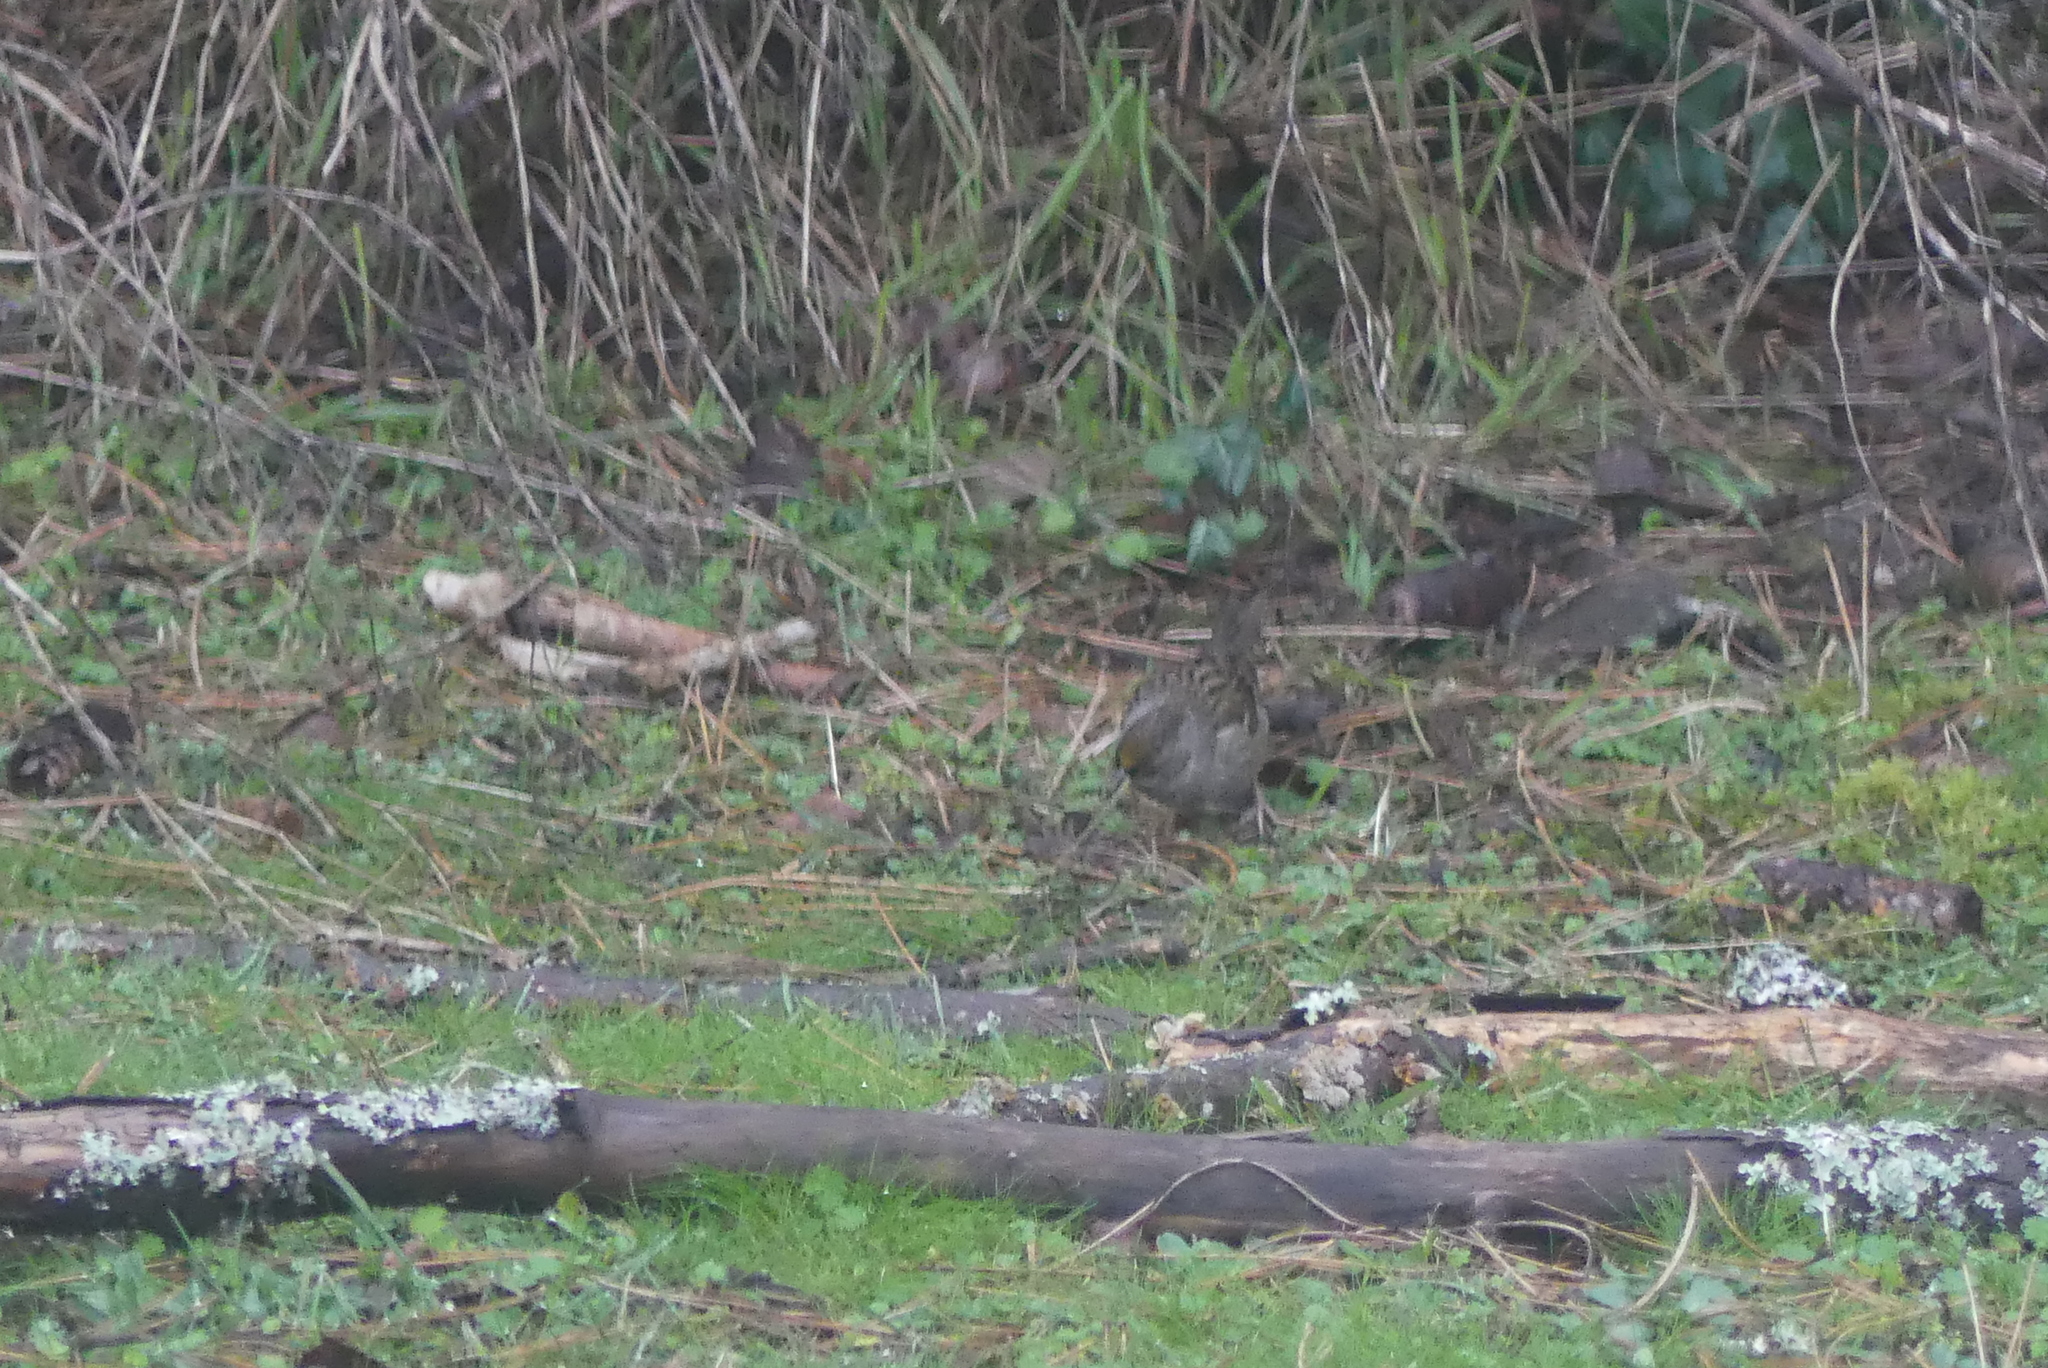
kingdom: Animalia
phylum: Chordata
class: Aves
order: Passeriformes
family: Passerellidae
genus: Zonotrichia
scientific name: Zonotrichia atricapilla
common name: Golden-crowned sparrow
